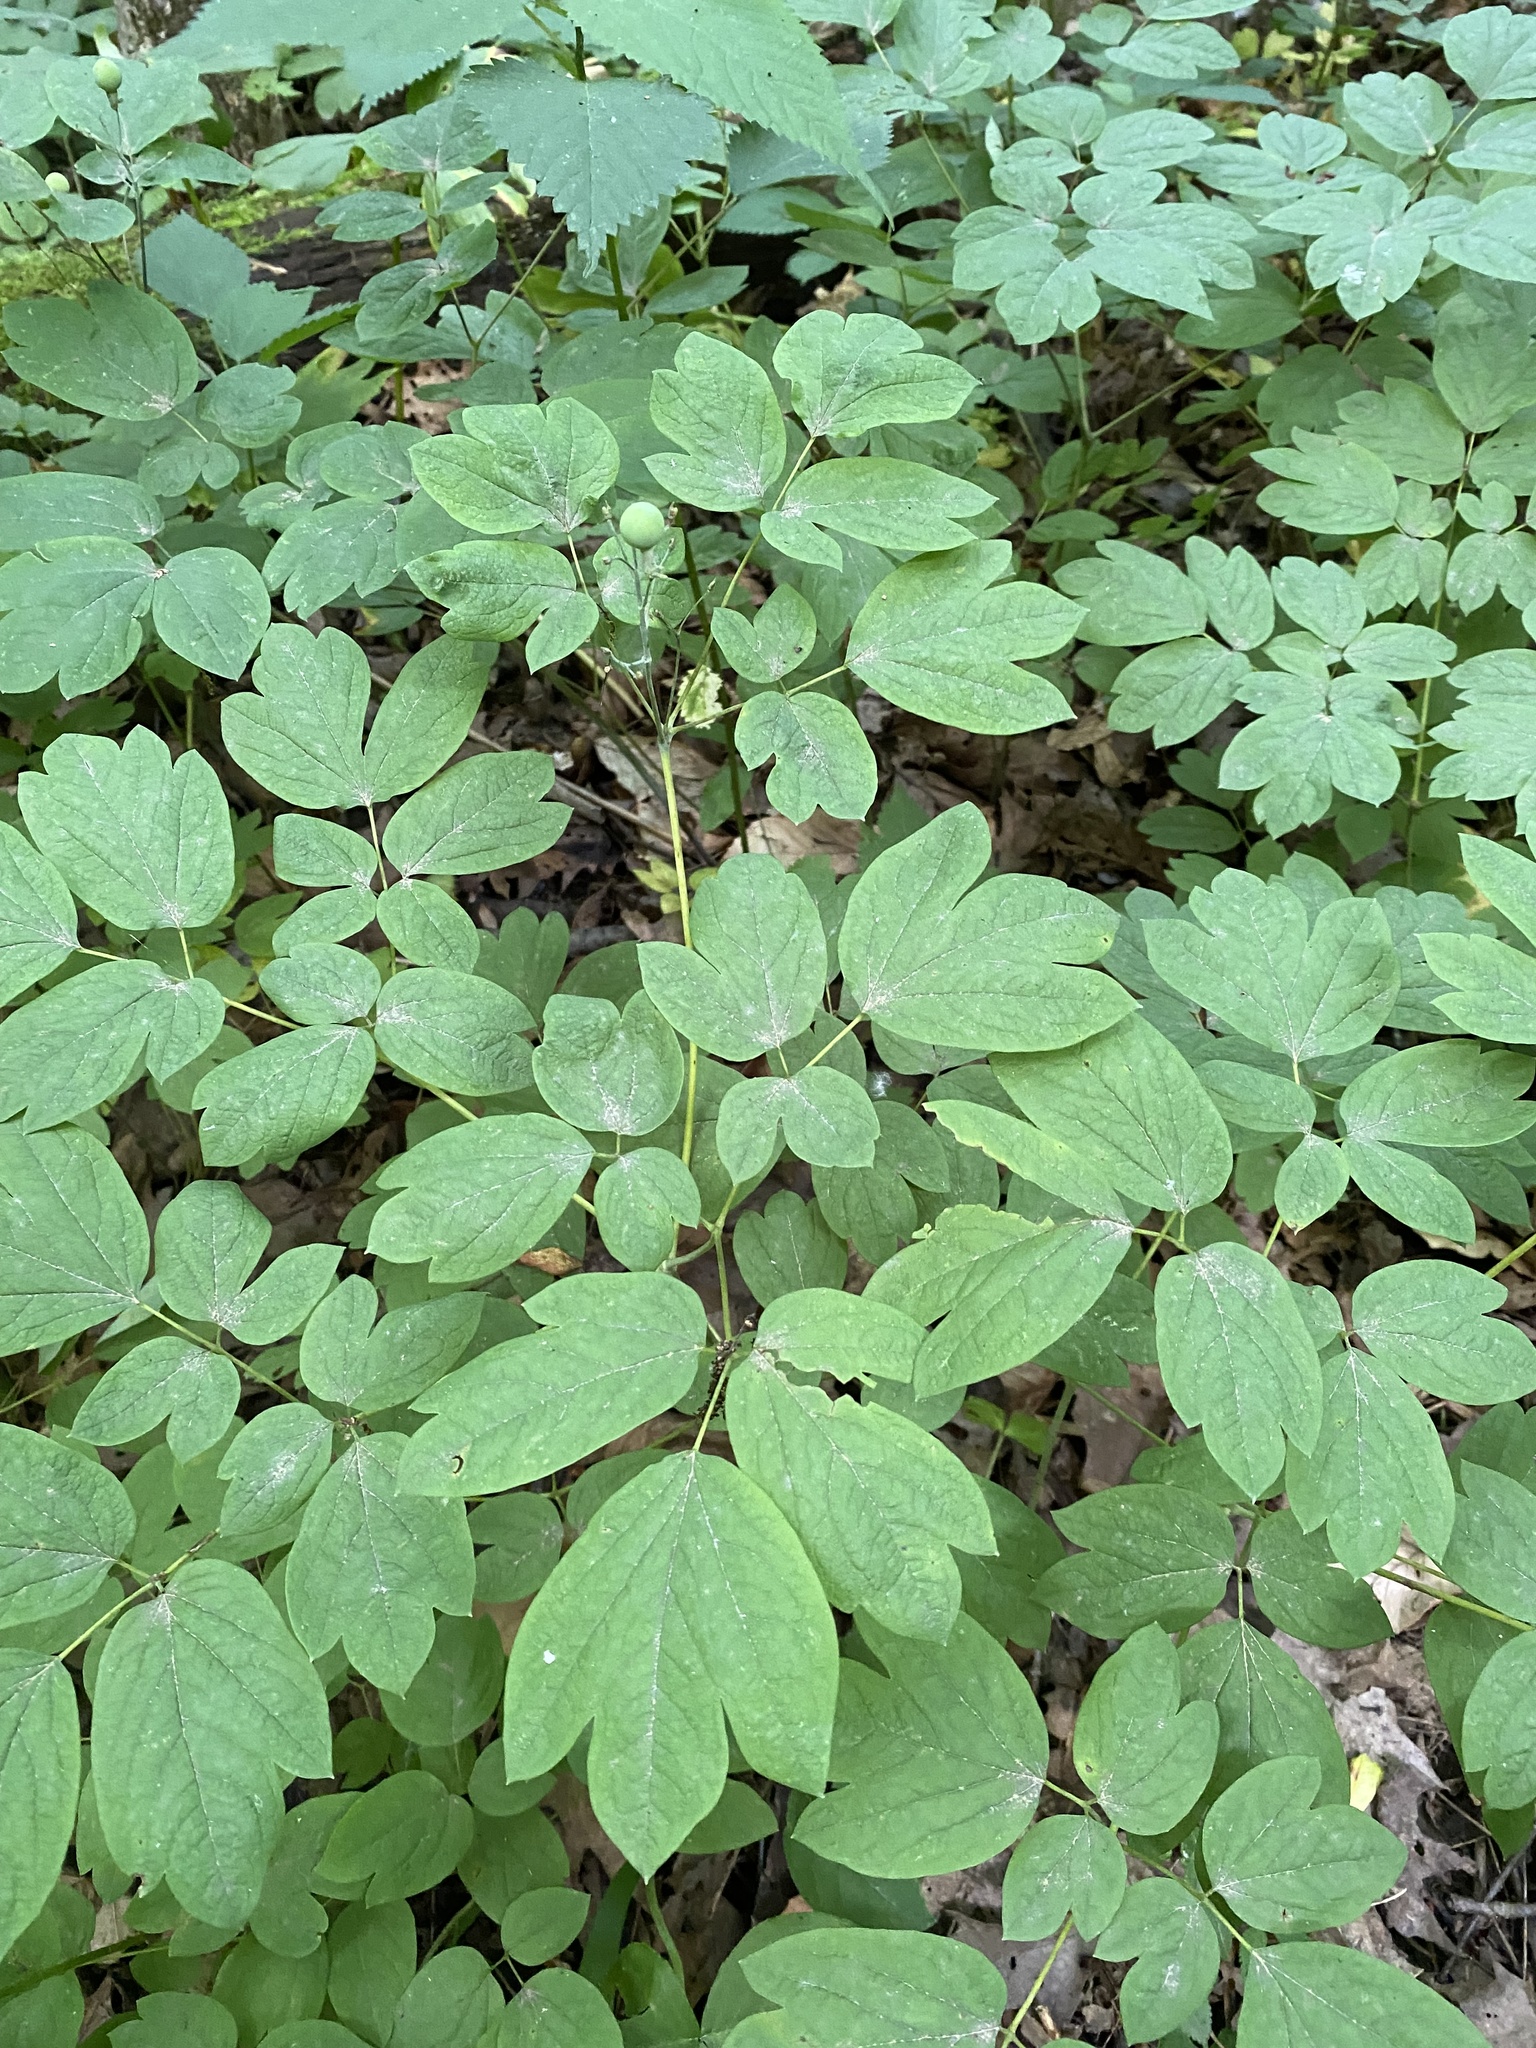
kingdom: Plantae
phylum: Tracheophyta
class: Magnoliopsida
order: Ranunculales
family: Berberidaceae
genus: Caulophyllum
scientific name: Caulophyllum thalictroides
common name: Blue cohosh
